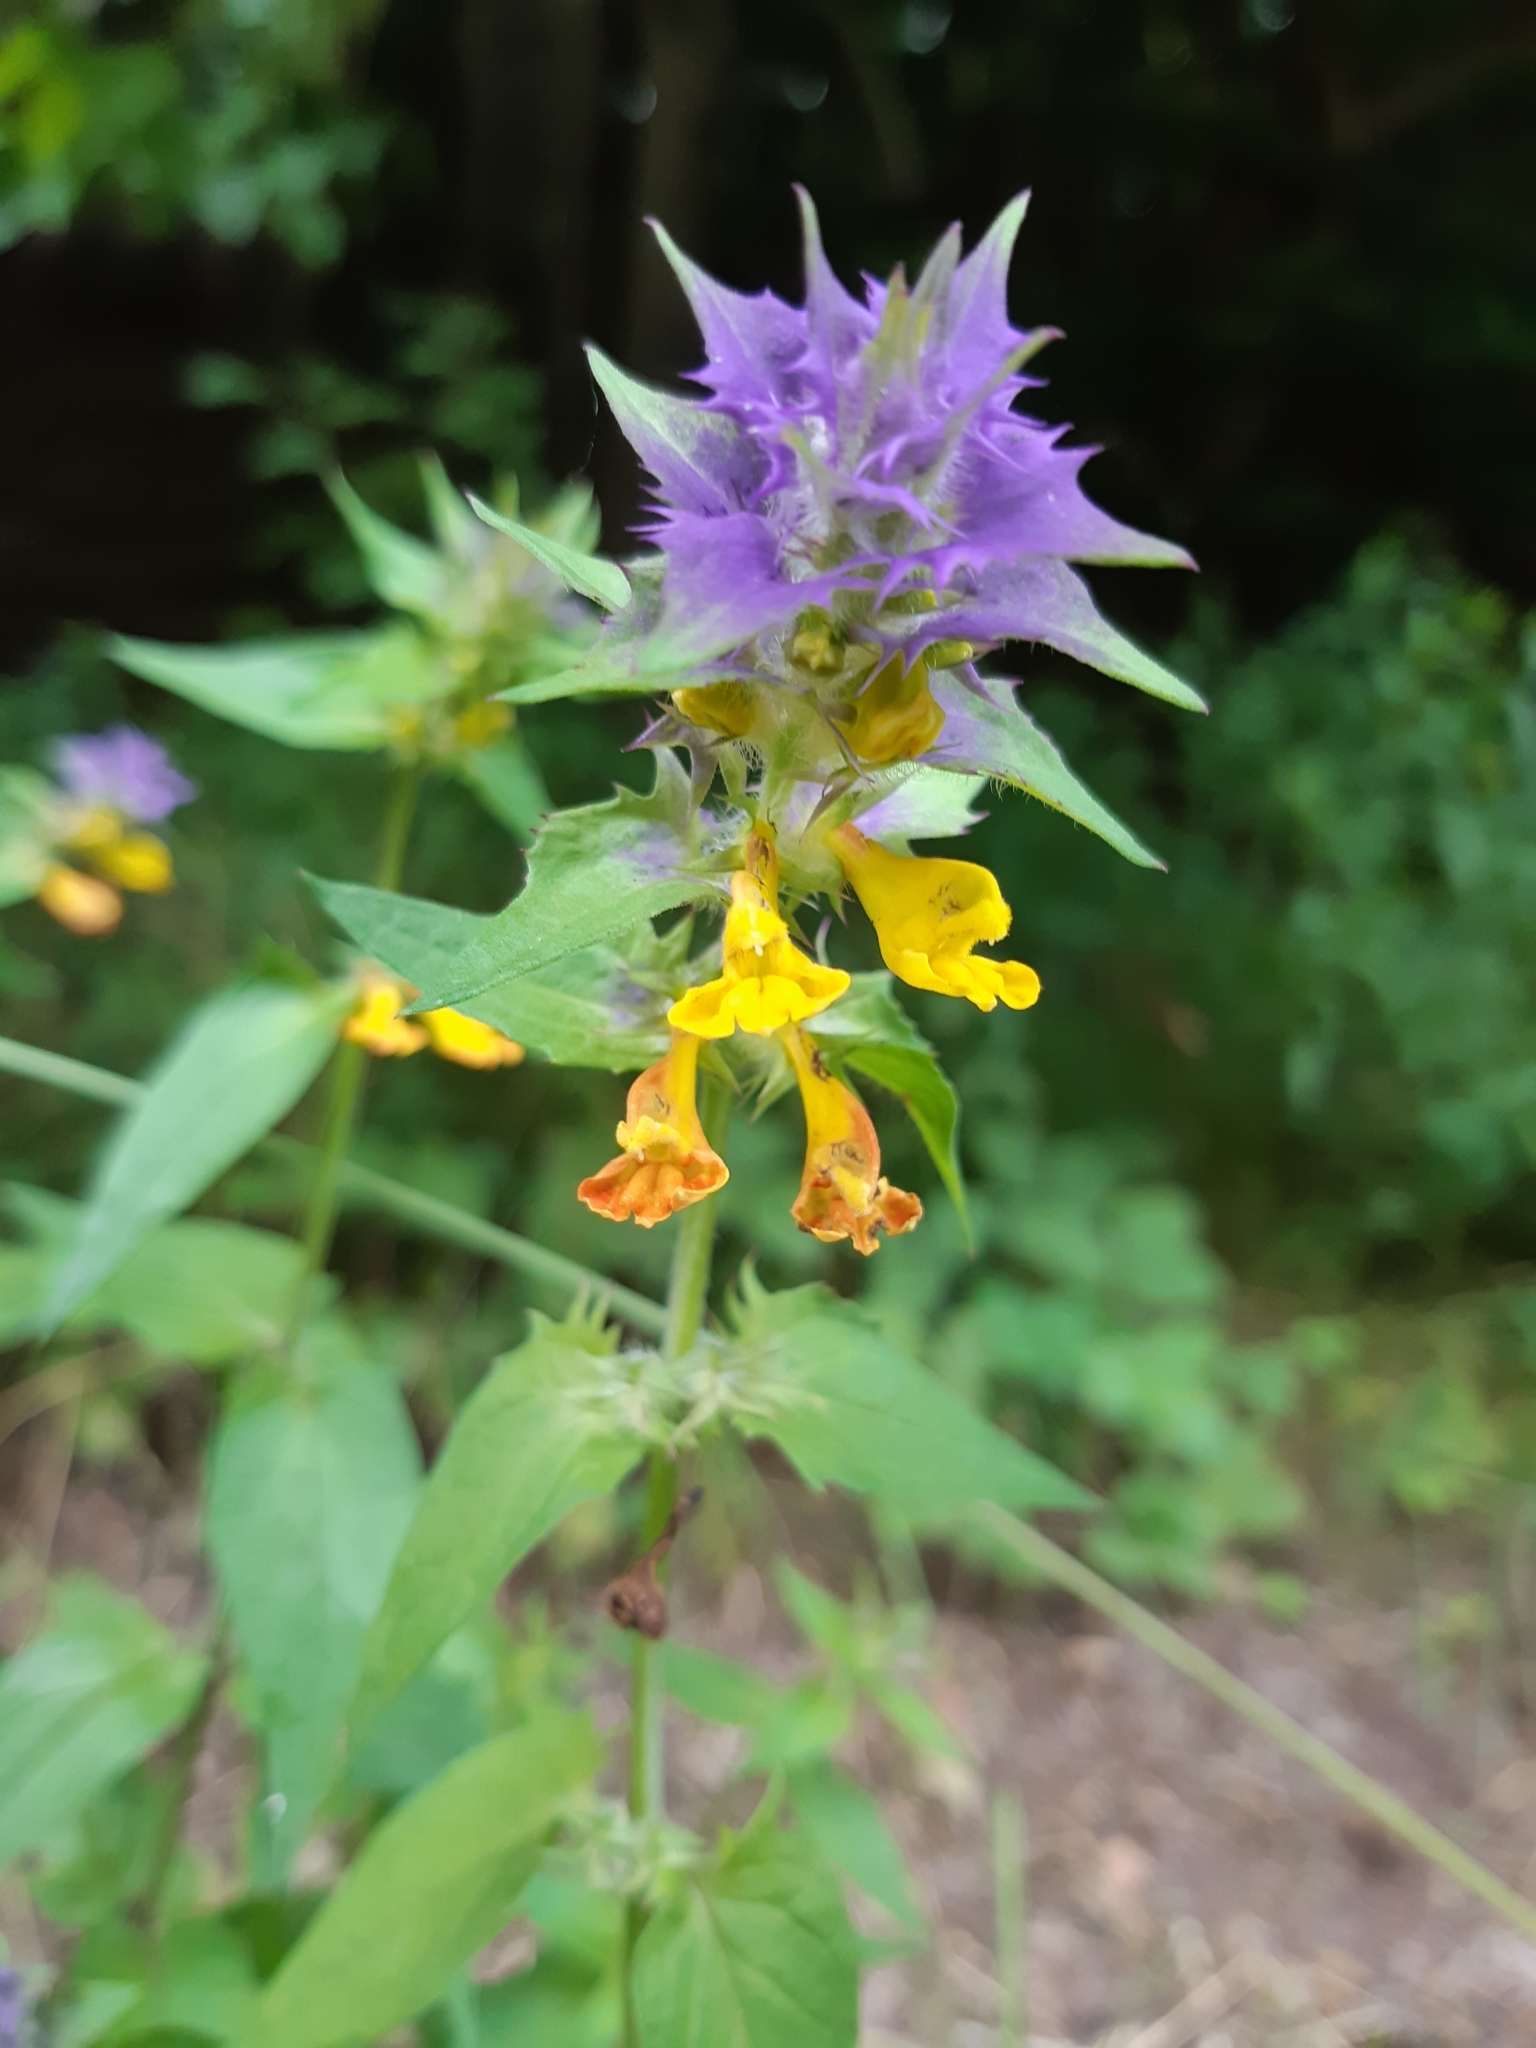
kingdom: Plantae
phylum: Tracheophyta
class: Magnoliopsida
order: Lamiales
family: Orobanchaceae
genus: Melampyrum
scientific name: Melampyrum nemorosum
